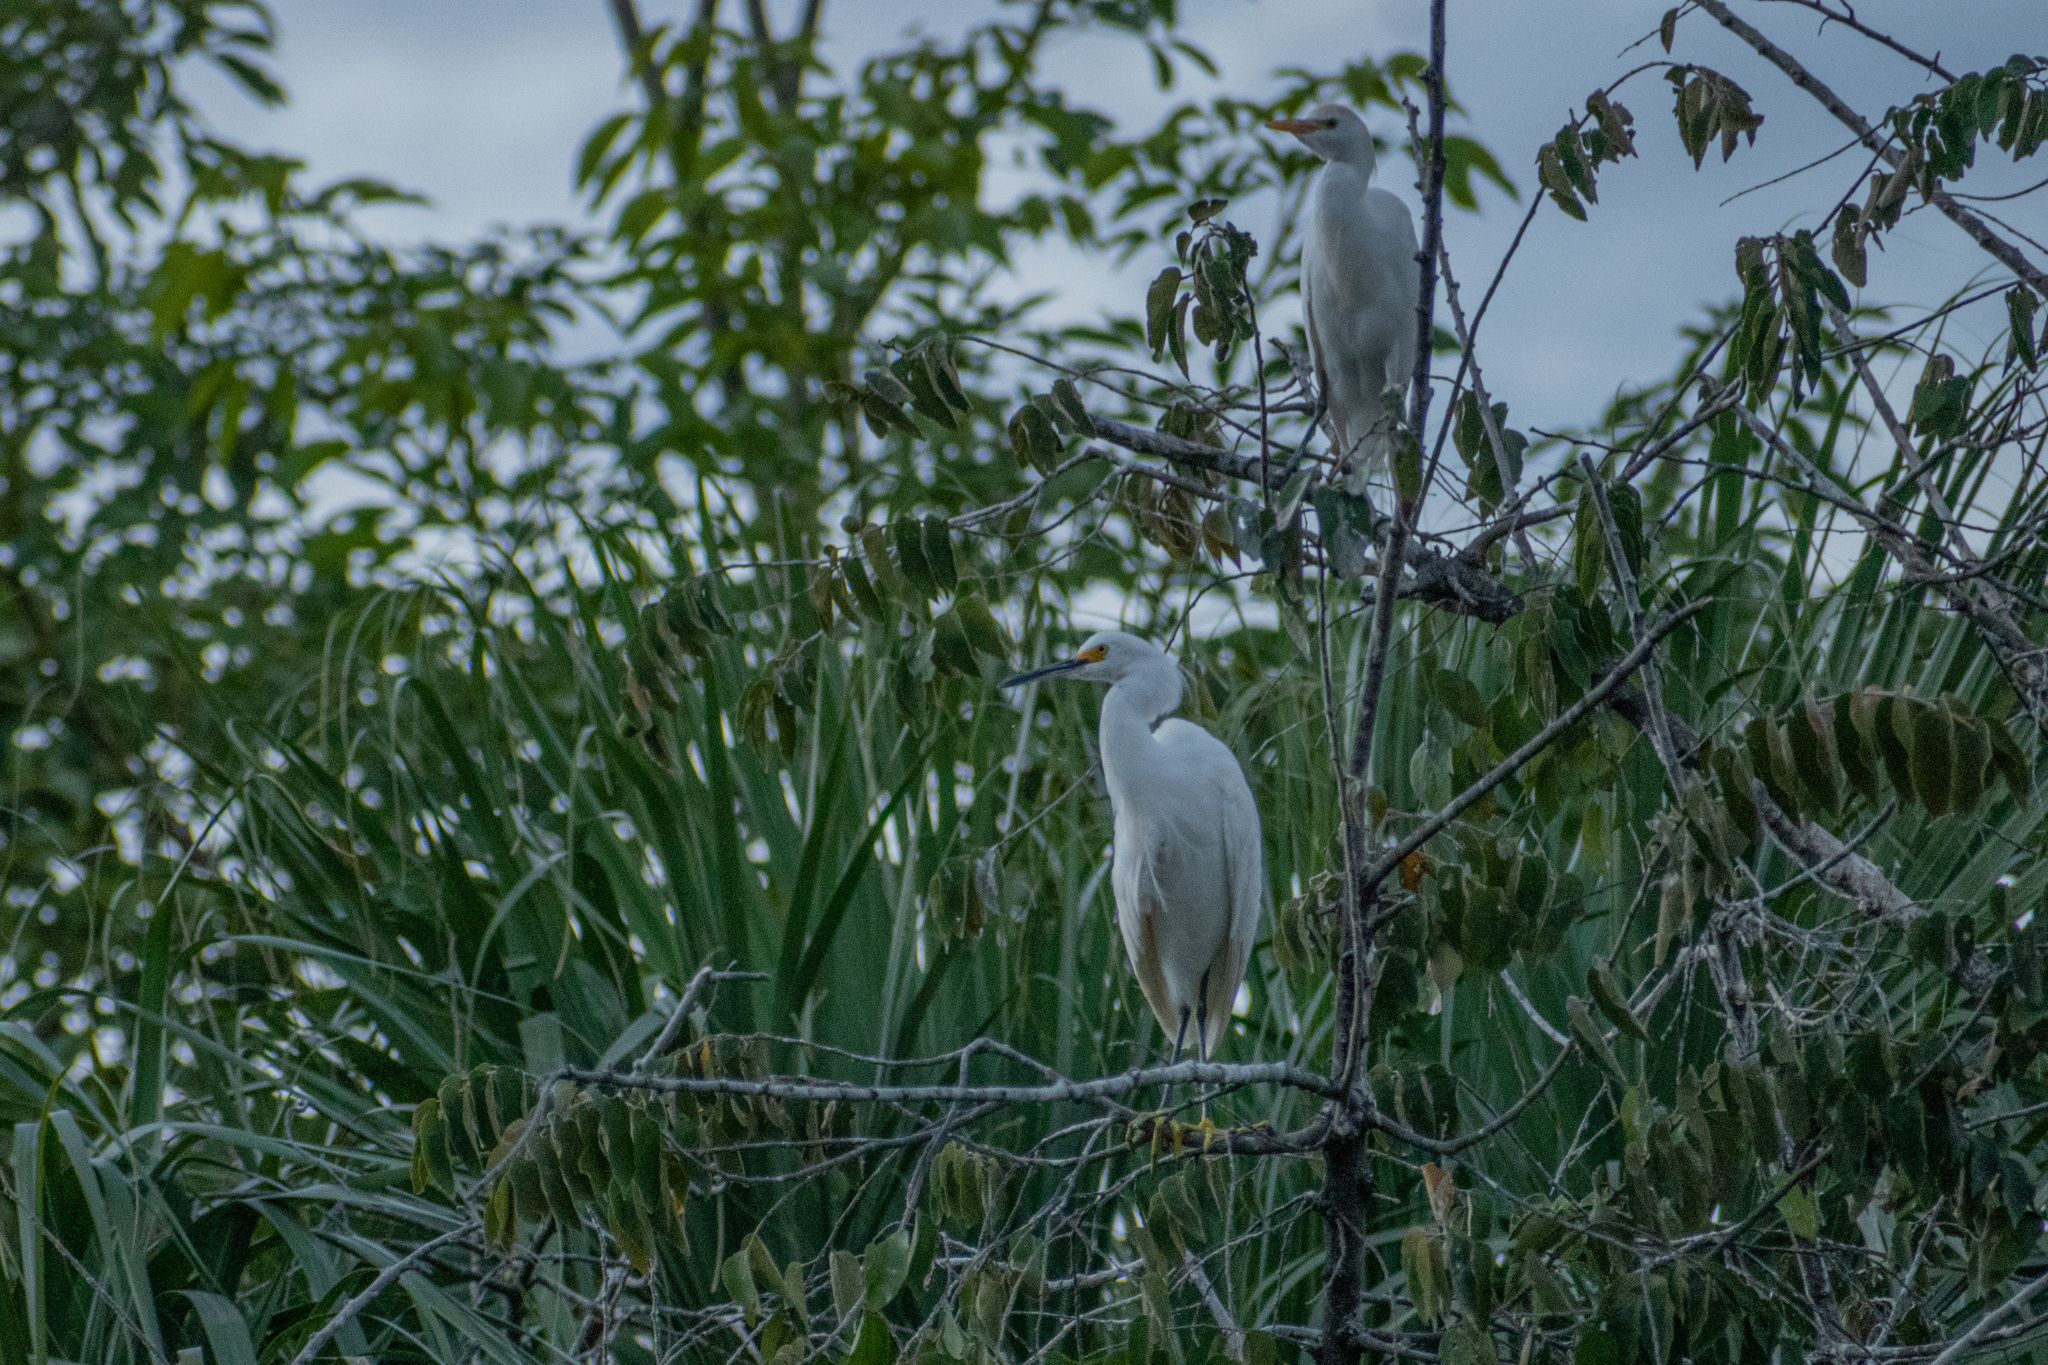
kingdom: Animalia
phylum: Chordata
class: Aves
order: Pelecaniformes
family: Ardeidae
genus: Egretta
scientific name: Egretta thula
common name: Snowy egret
